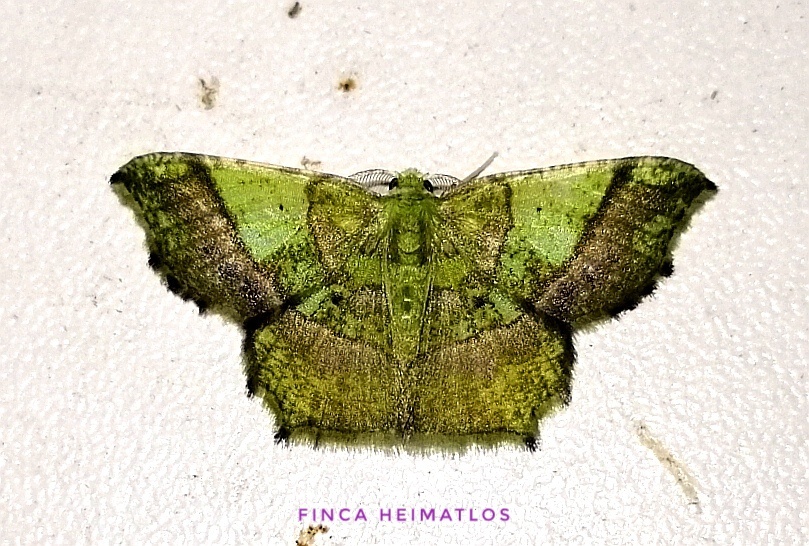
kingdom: Animalia
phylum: Arthropoda
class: Insecta
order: Lepidoptera
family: Geometridae
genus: Neagathia
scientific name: Neagathia corruptata
